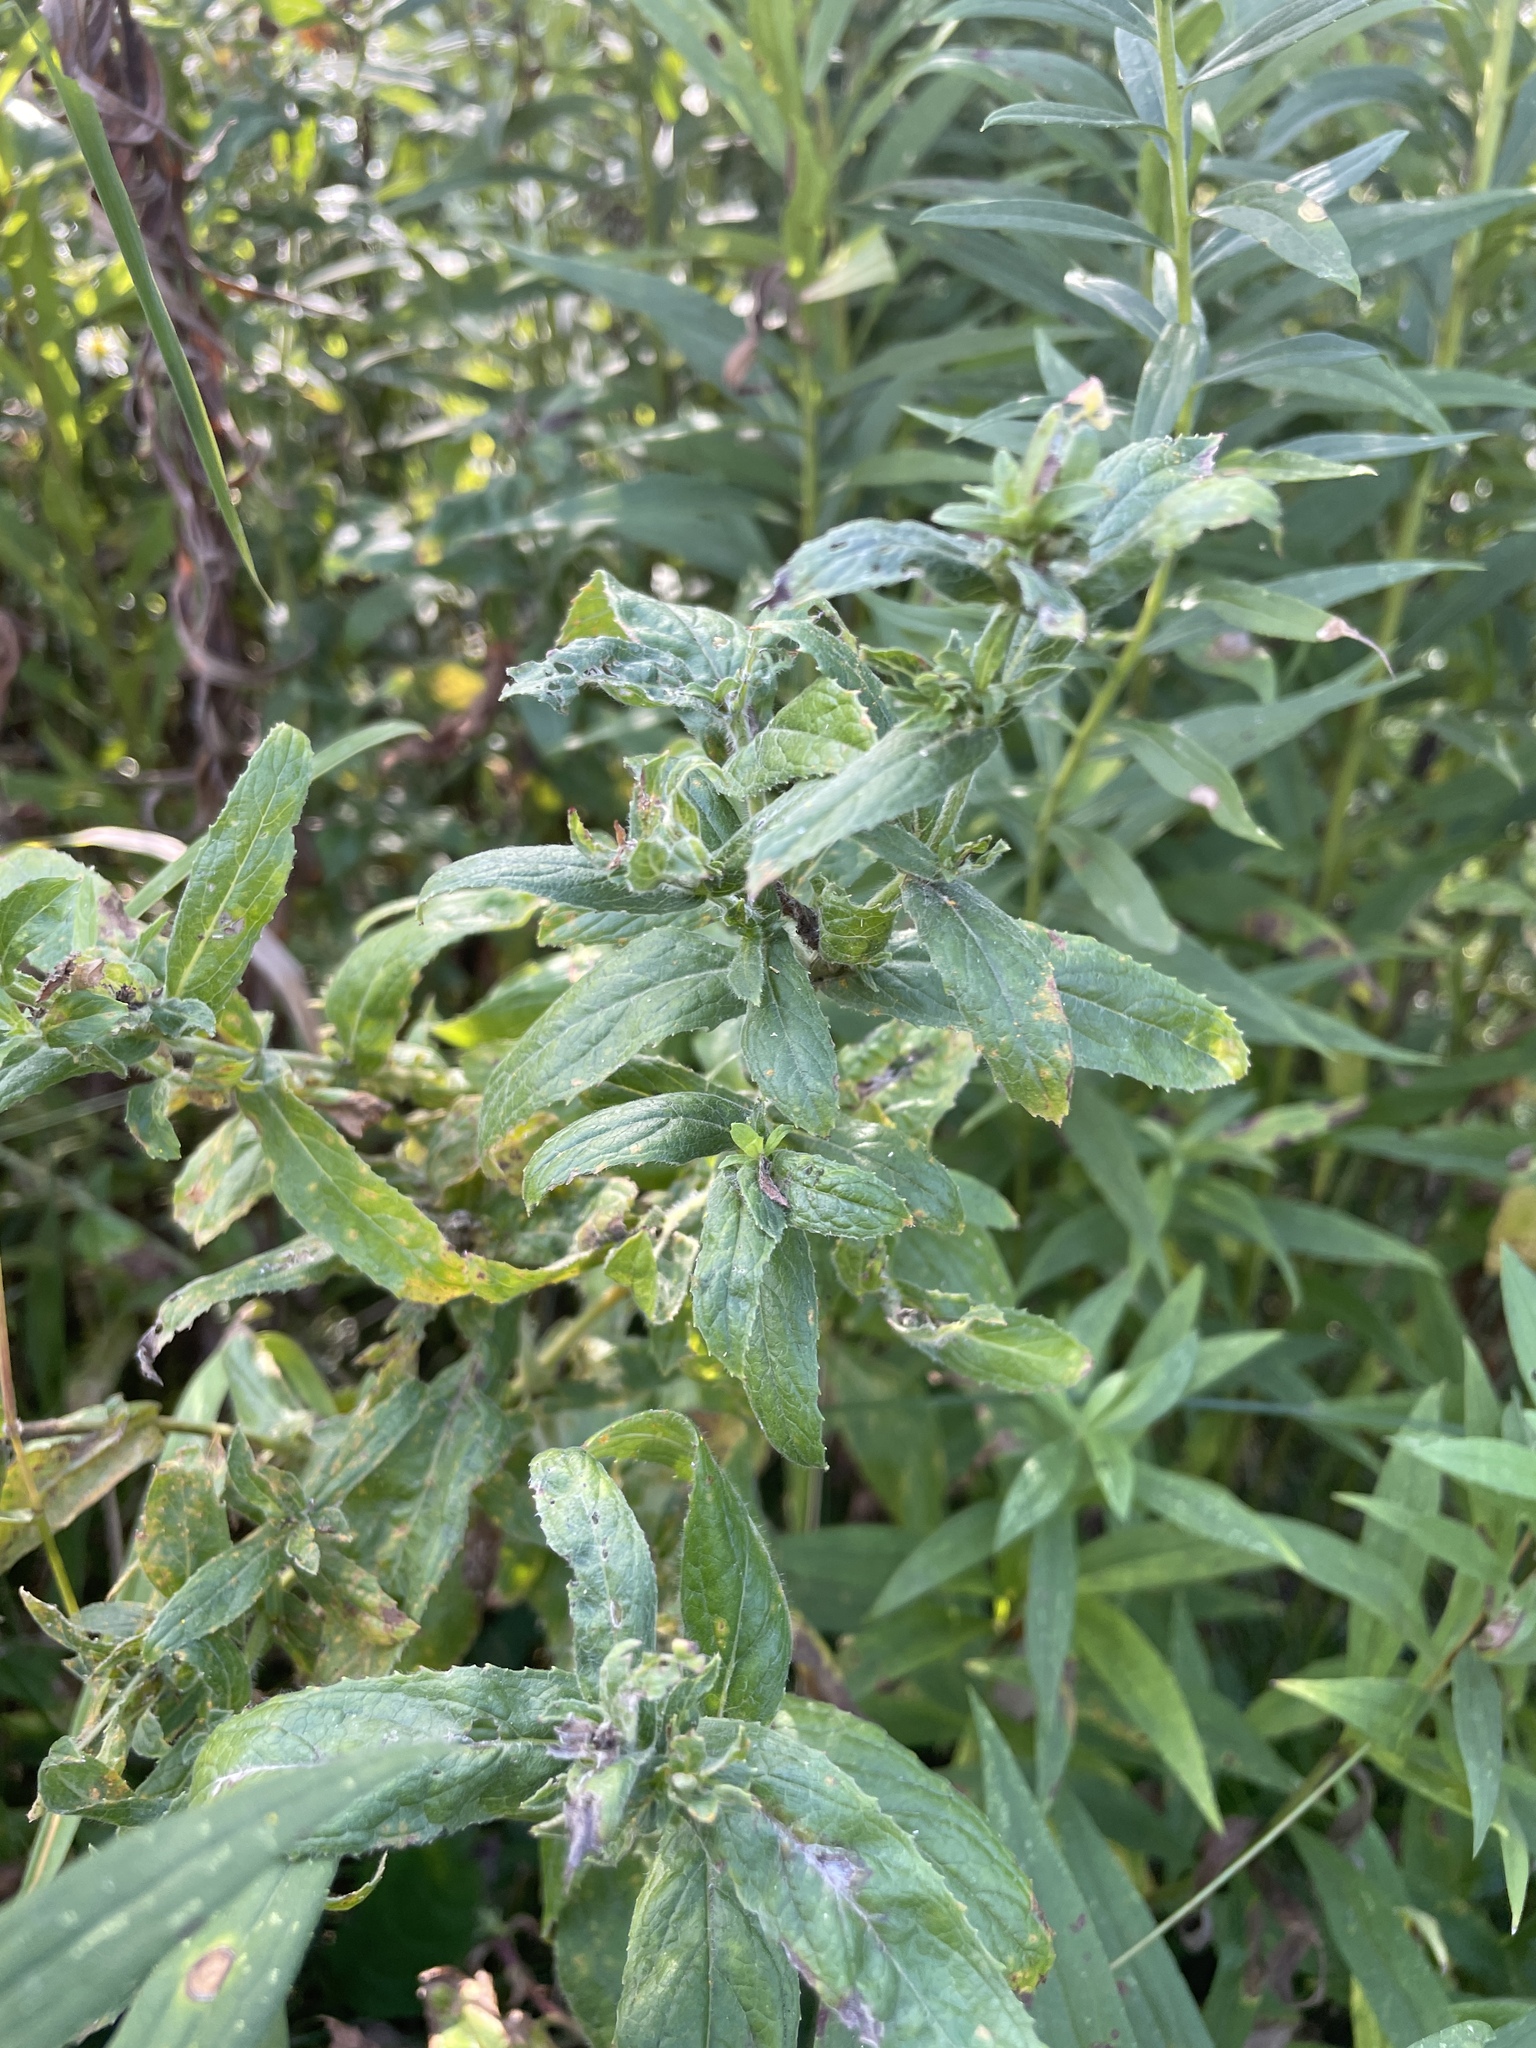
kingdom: Plantae
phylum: Tracheophyta
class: Magnoliopsida
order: Myrtales
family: Onagraceae
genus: Epilobium
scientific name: Epilobium hirsutum
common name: Great willowherb
